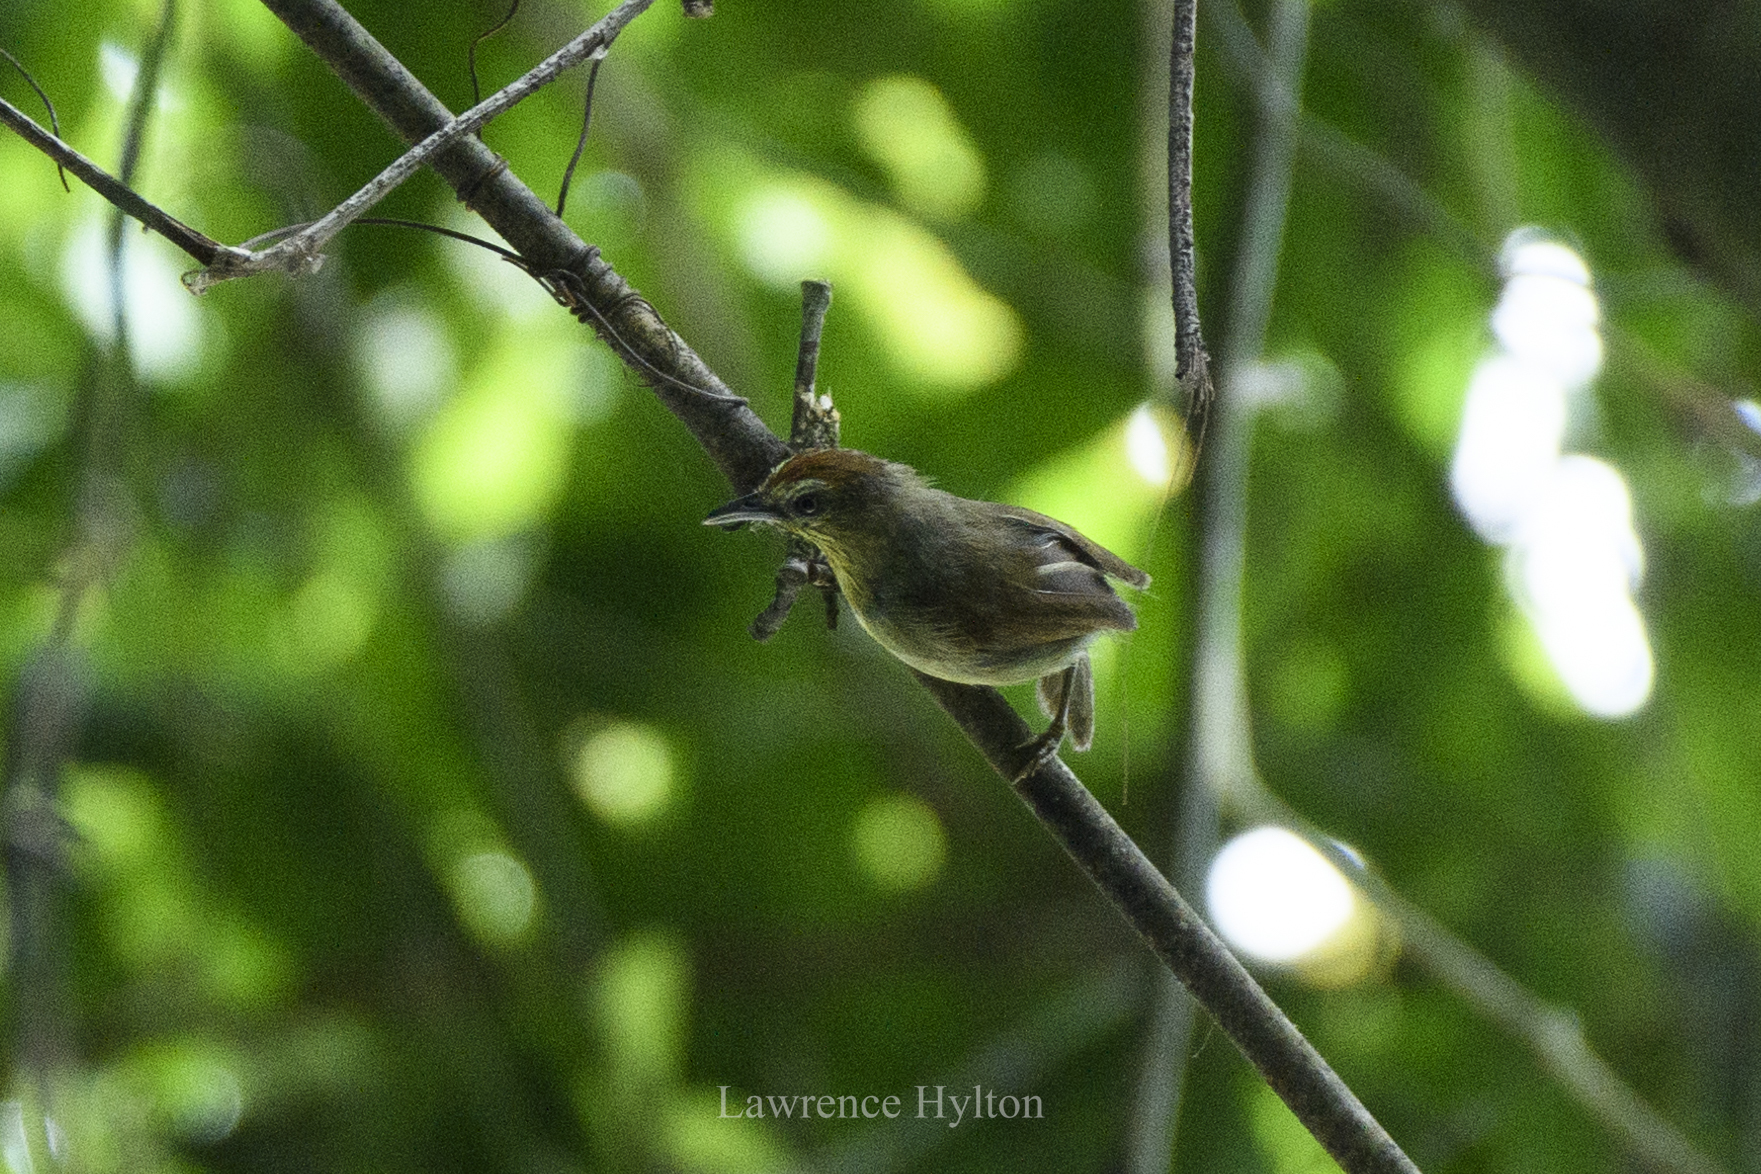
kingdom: Animalia
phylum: Chordata
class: Aves
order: Passeriformes
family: Timaliidae
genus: Macronus
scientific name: Macronus gularis
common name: Striped tit-babbler
